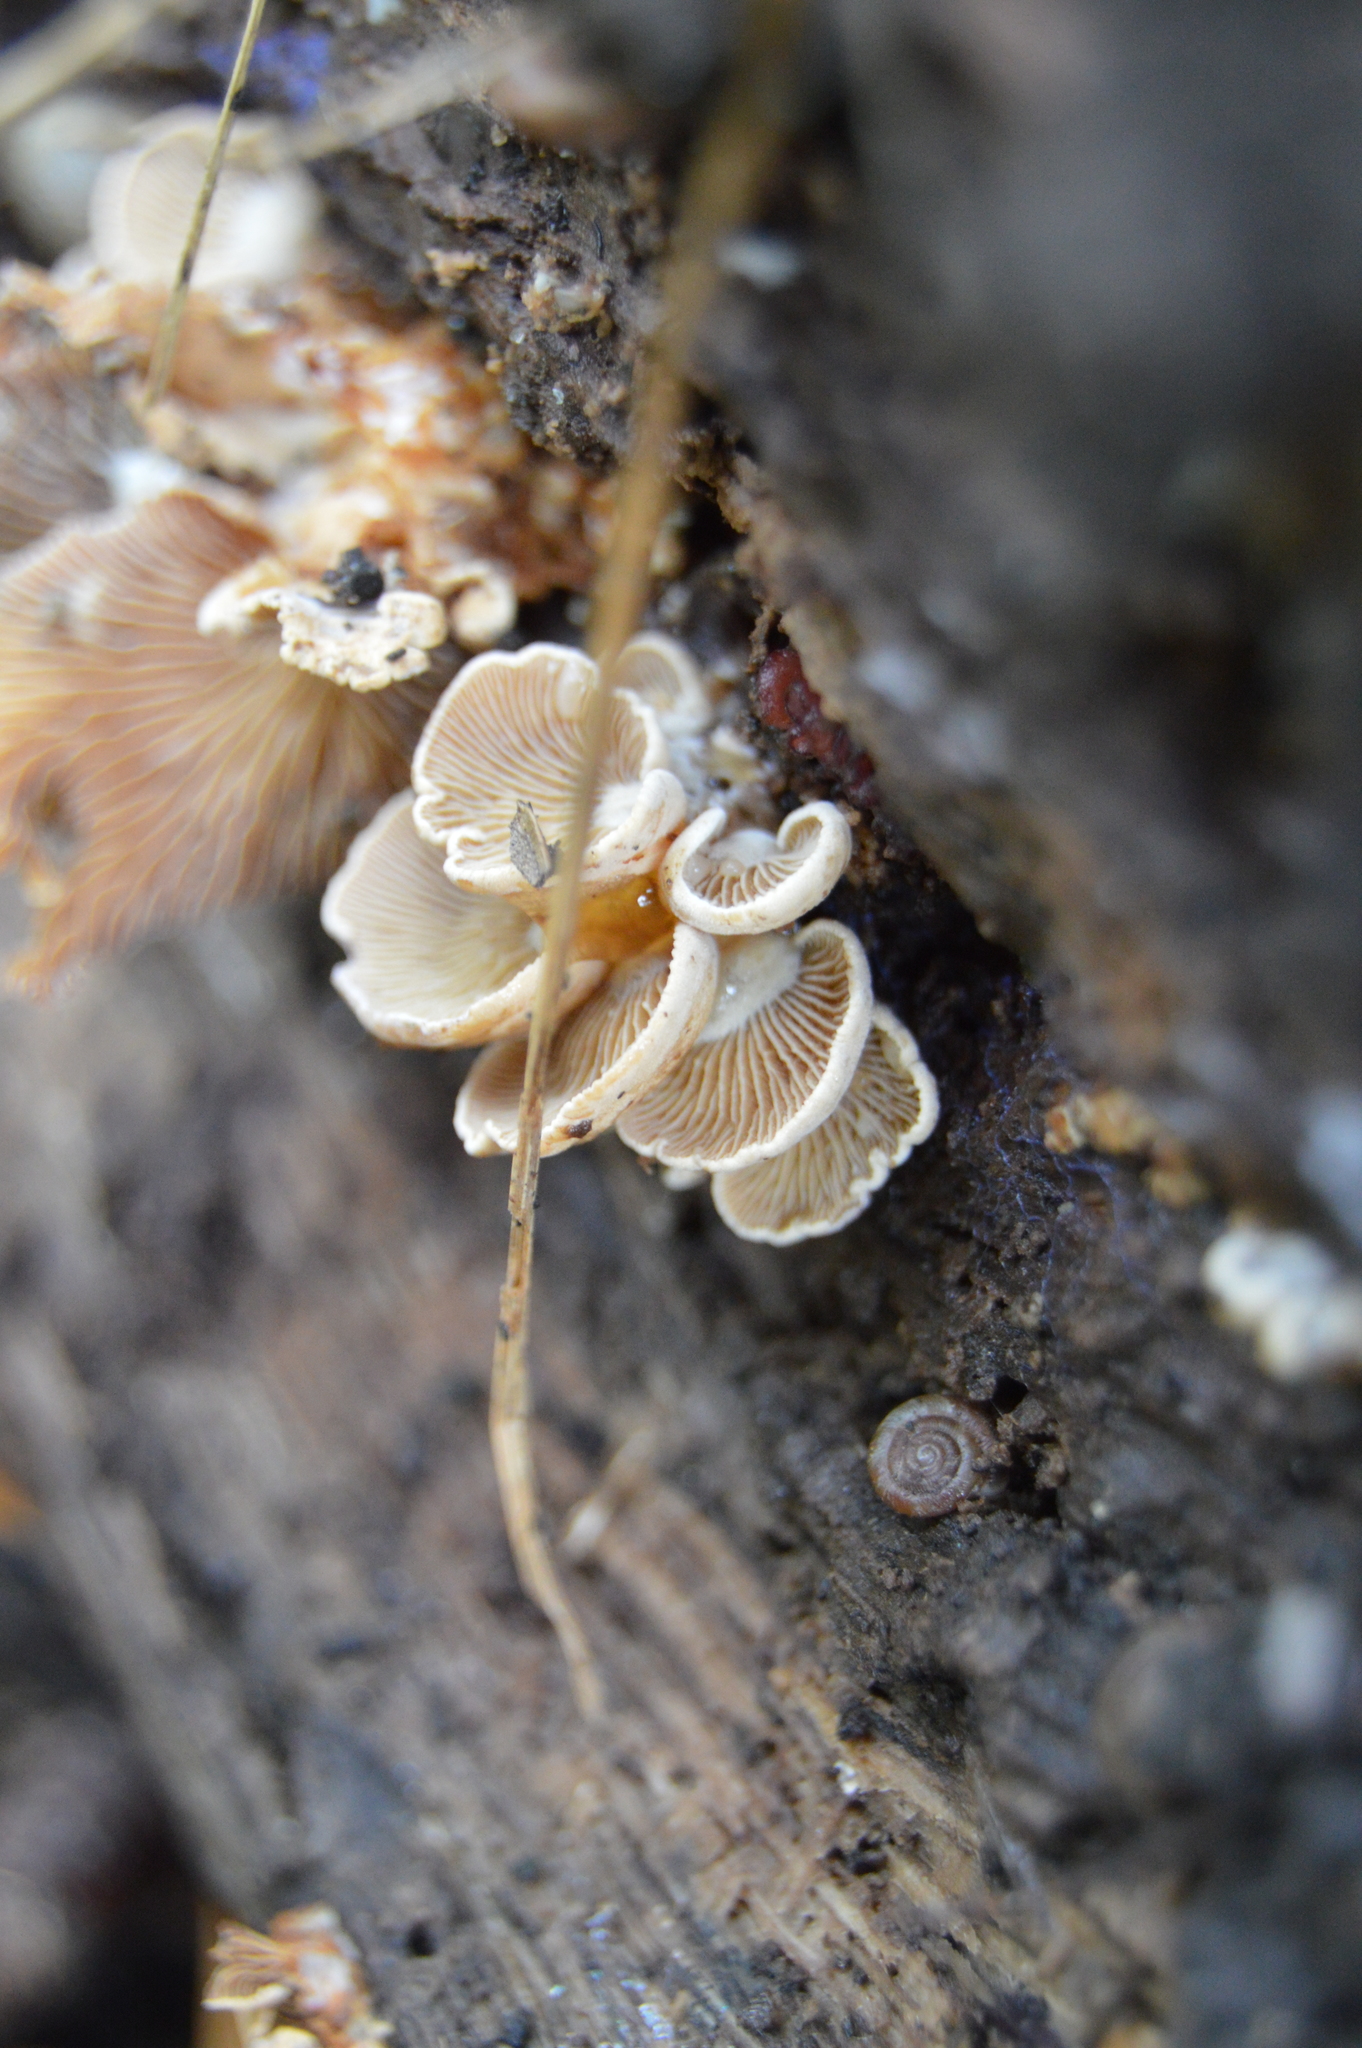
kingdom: Fungi
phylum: Basidiomycota
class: Agaricomycetes
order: Agaricales
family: Mycenaceae
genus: Panellus
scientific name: Panellus stipticus
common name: Bitter oysterling
